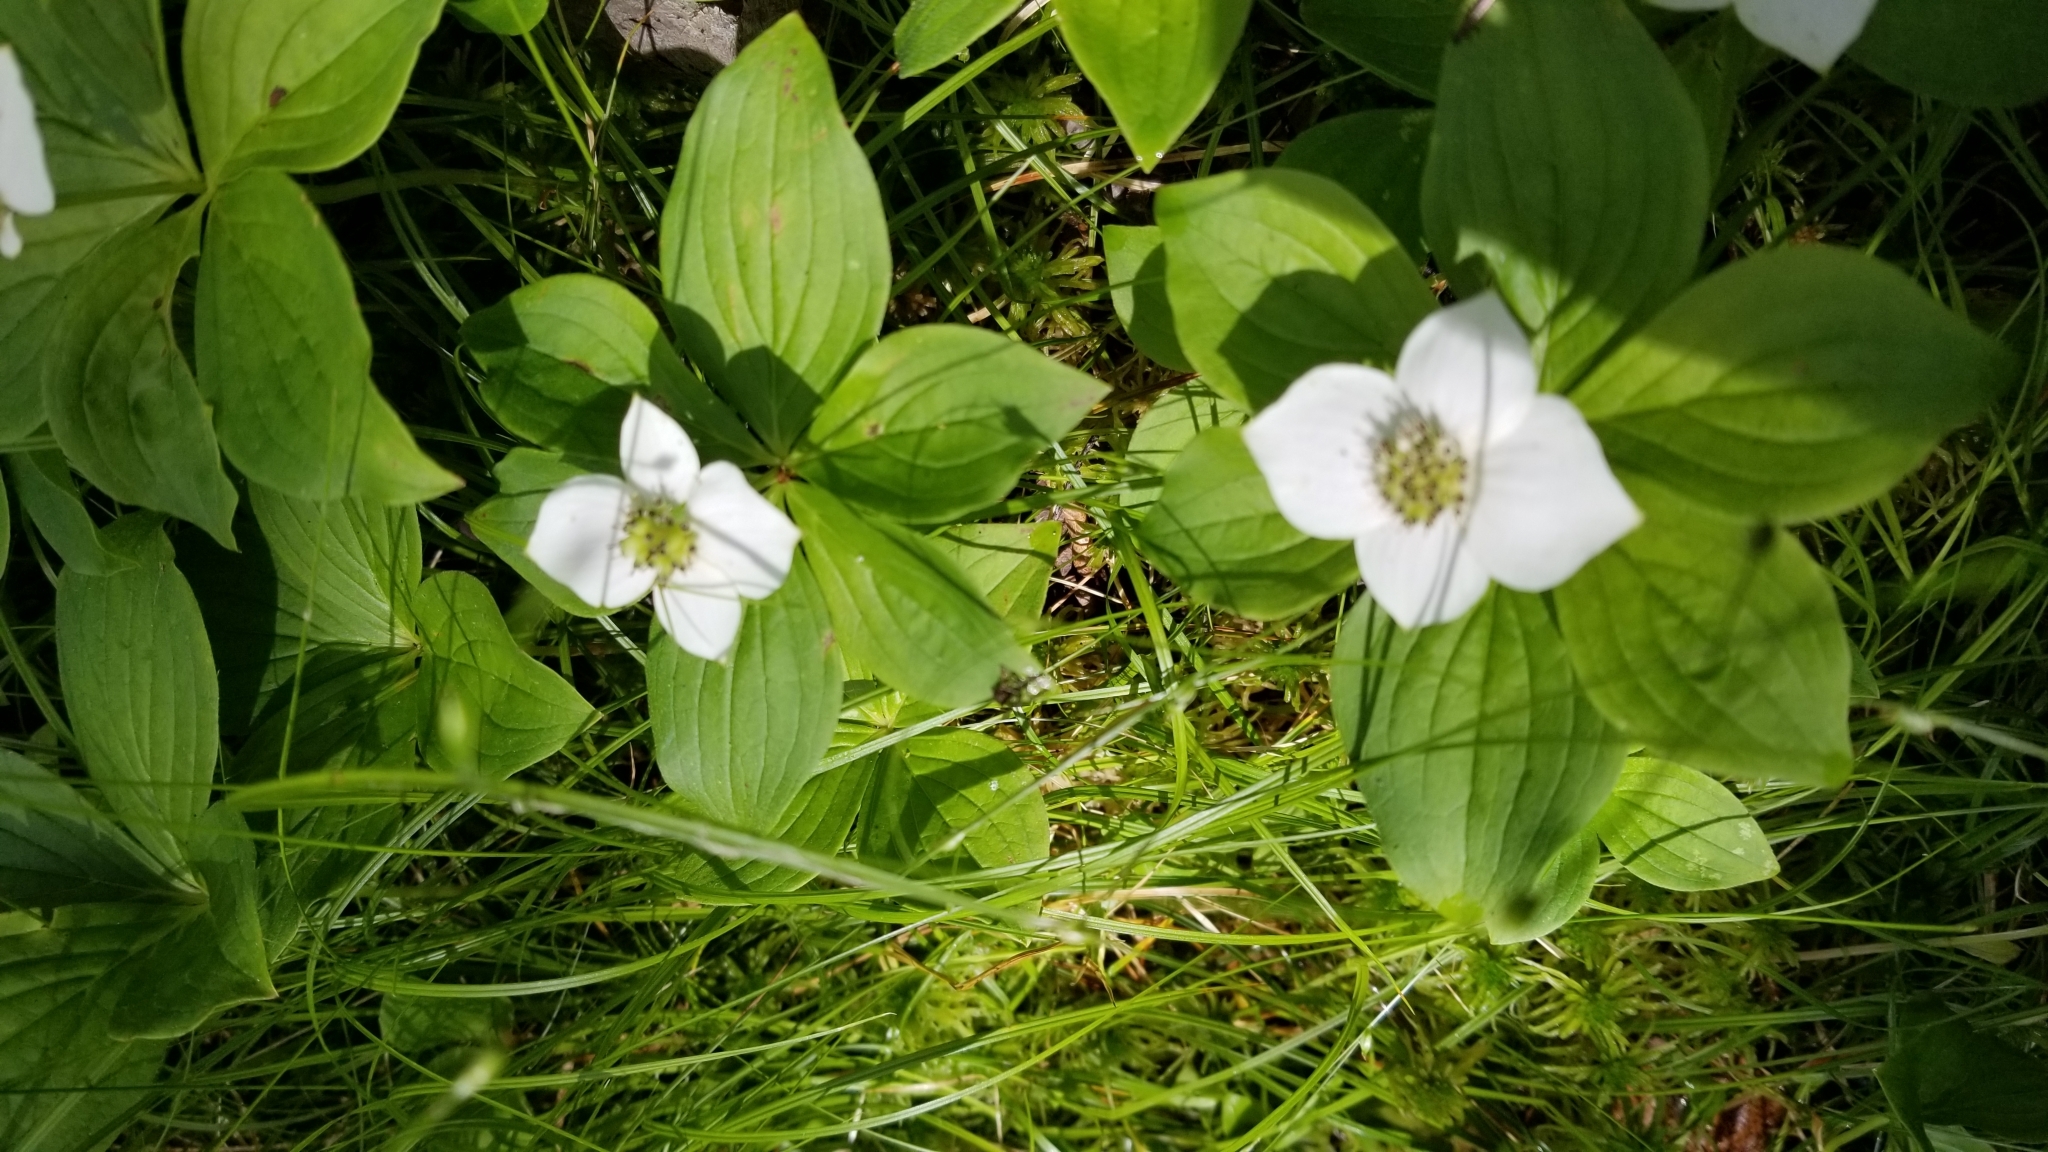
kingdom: Plantae
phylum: Tracheophyta
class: Magnoliopsida
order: Cornales
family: Cornaceae
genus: Cornus
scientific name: Cornus canadensis
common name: Creeping dogwood
